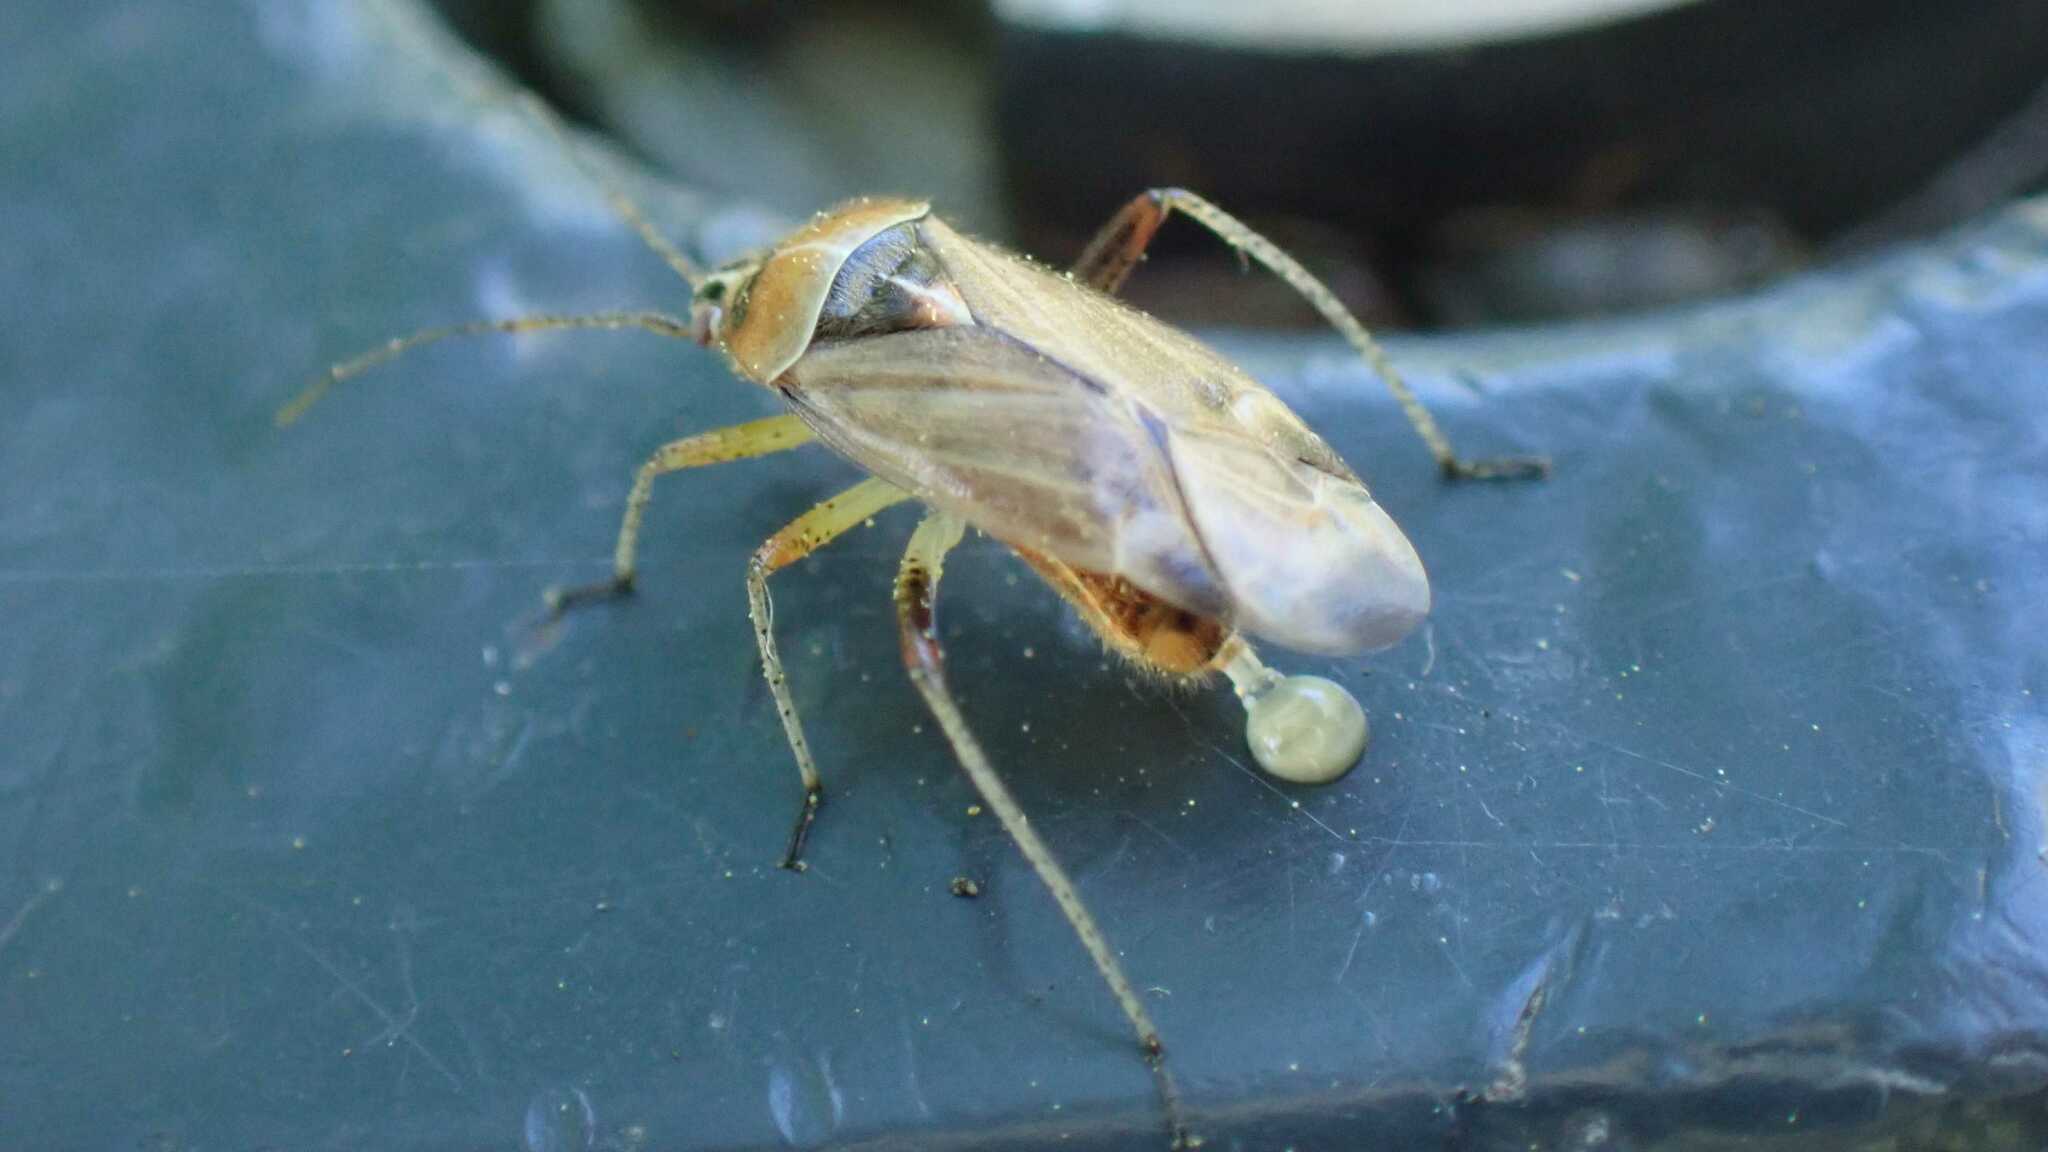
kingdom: Animalia
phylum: Arthropoda
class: Insecta
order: Hemiptera
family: Miridae
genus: Harpocera
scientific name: Harpocera thoracica
